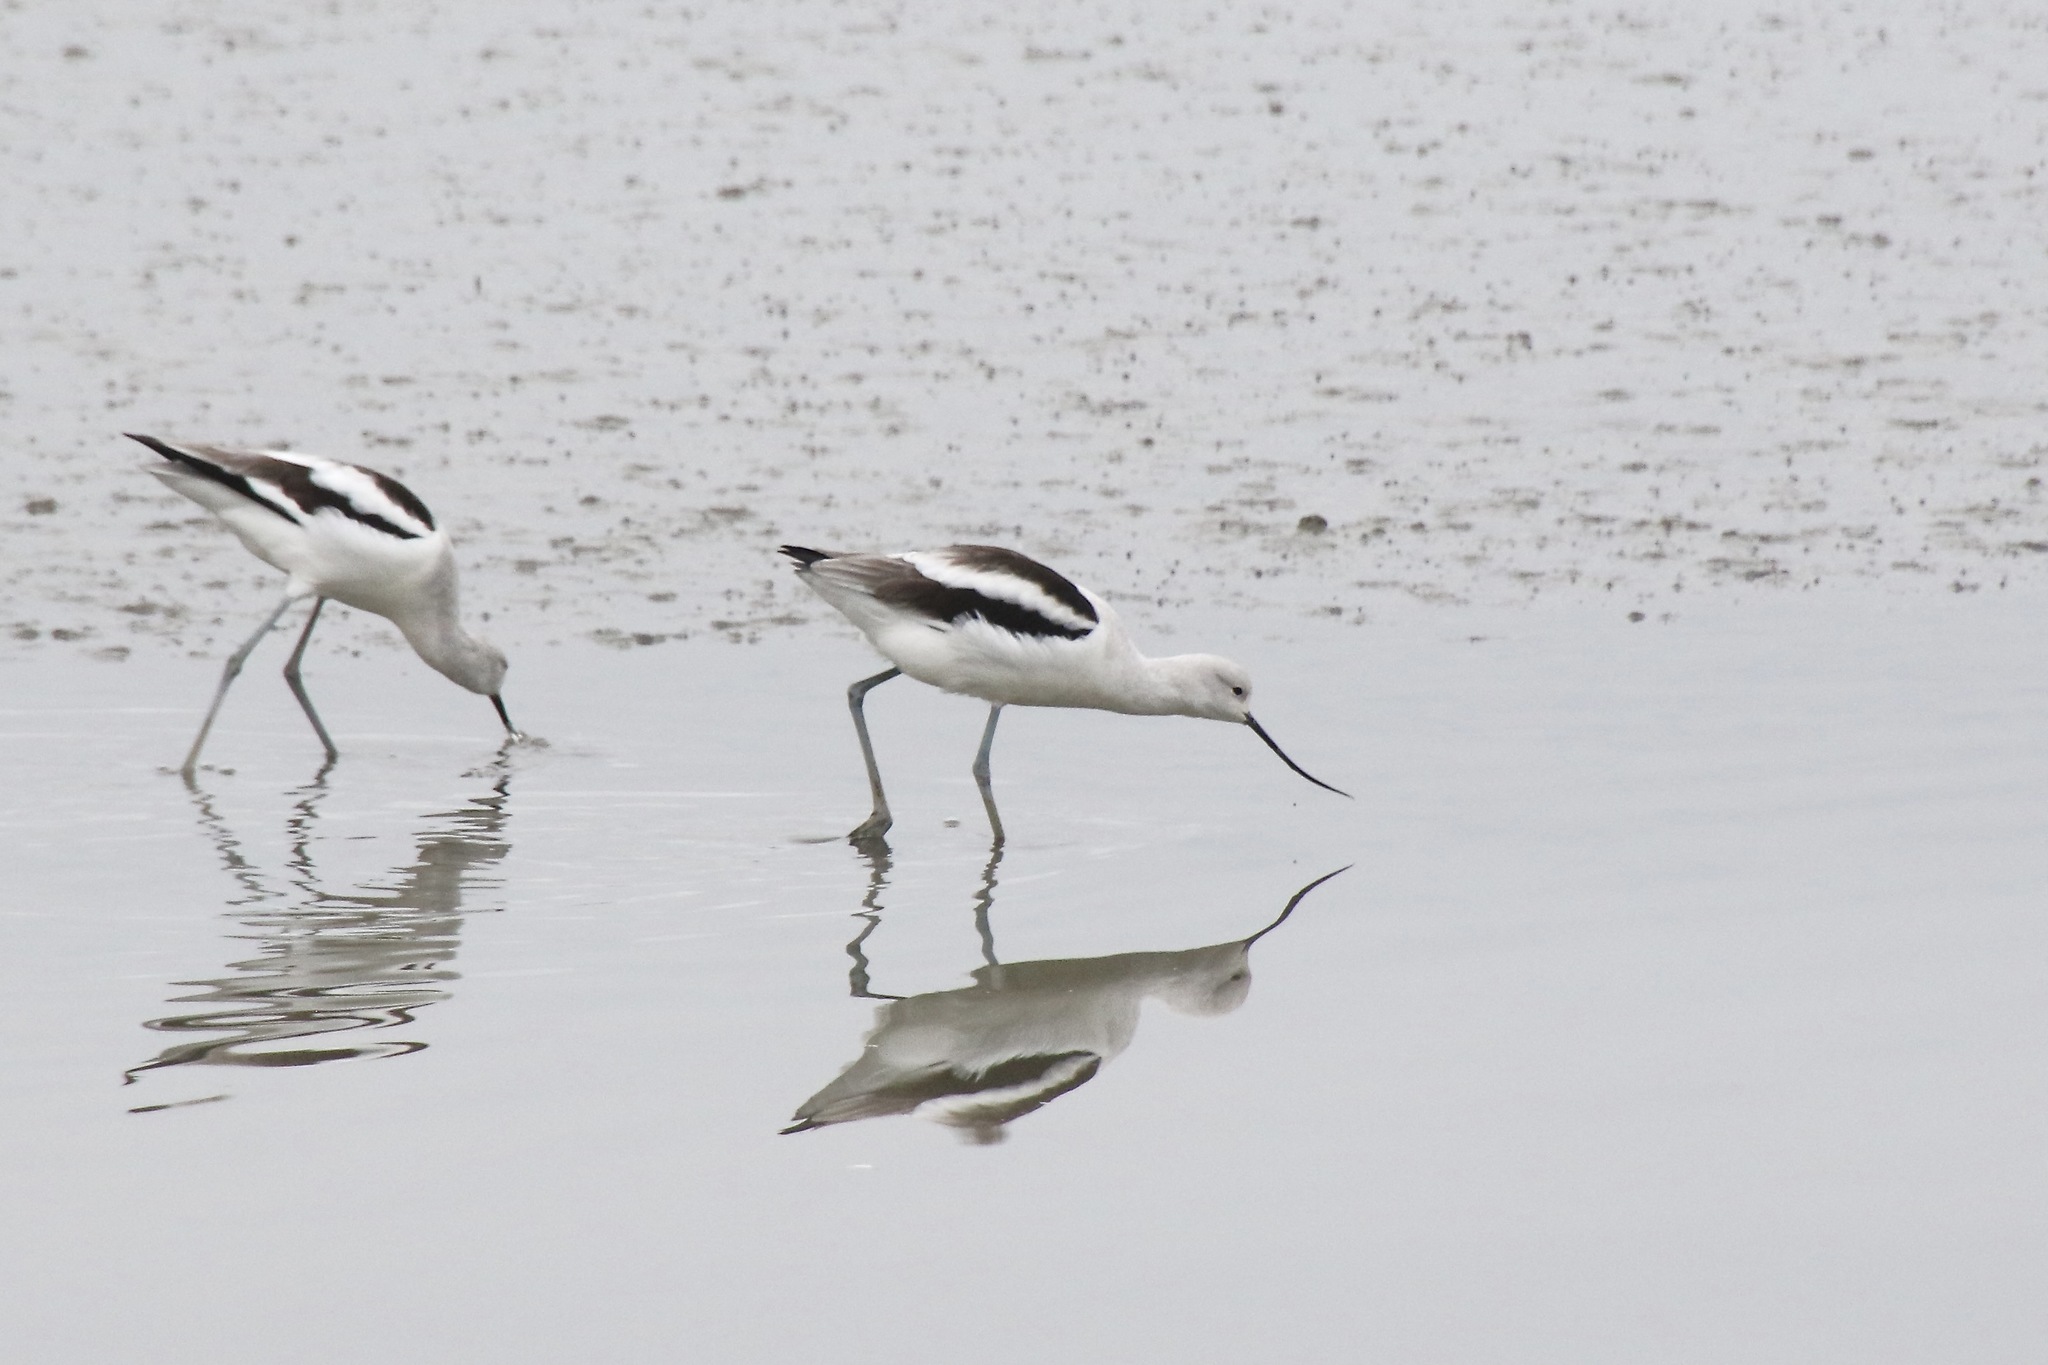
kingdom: Animalia
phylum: Chordata
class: Aves
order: Charadriiformes
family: Recurvirostridae
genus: Recurvirostra
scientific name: Recurvirostra americana
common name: American avocet
